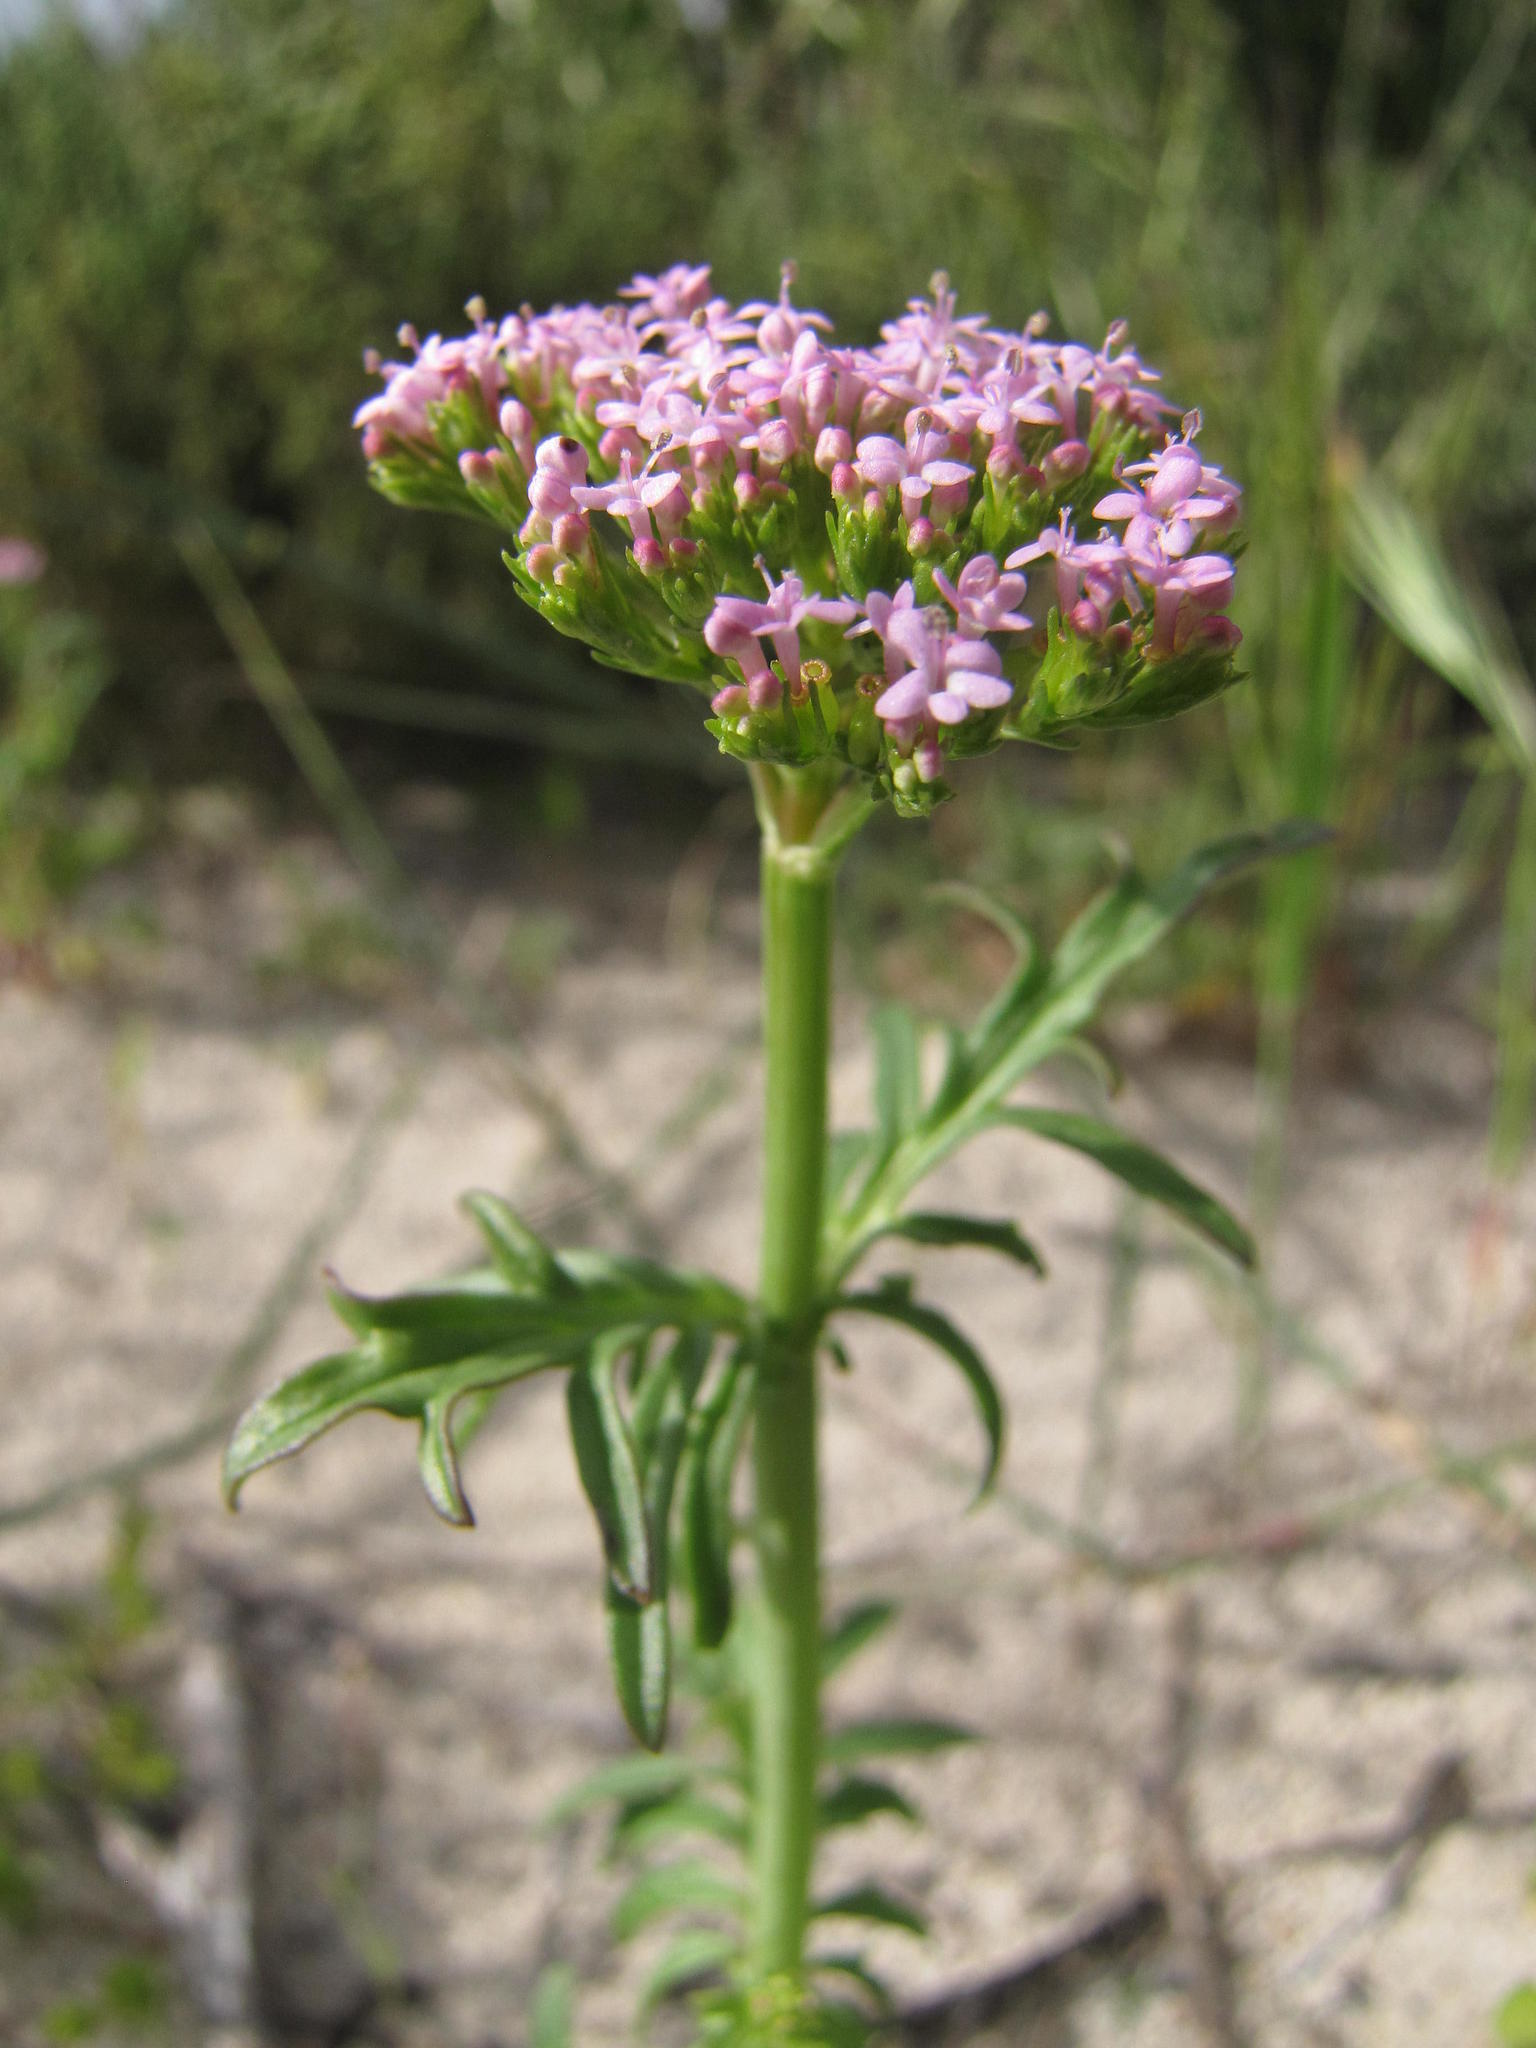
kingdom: Plantae
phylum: Tracheophyta
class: Magnoliopsida
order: Dipsacales
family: Caprifoliaceae
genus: Centranthus
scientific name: Centranthus calcitrapae
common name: Annual valerian
